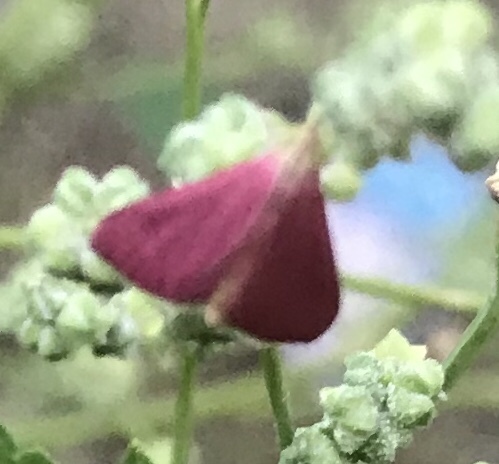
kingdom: Animalia
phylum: Arthropoda
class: Insecta
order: Lepidoptera
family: Crambidae
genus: Pyrausta
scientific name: Pyrausta inornatalis
